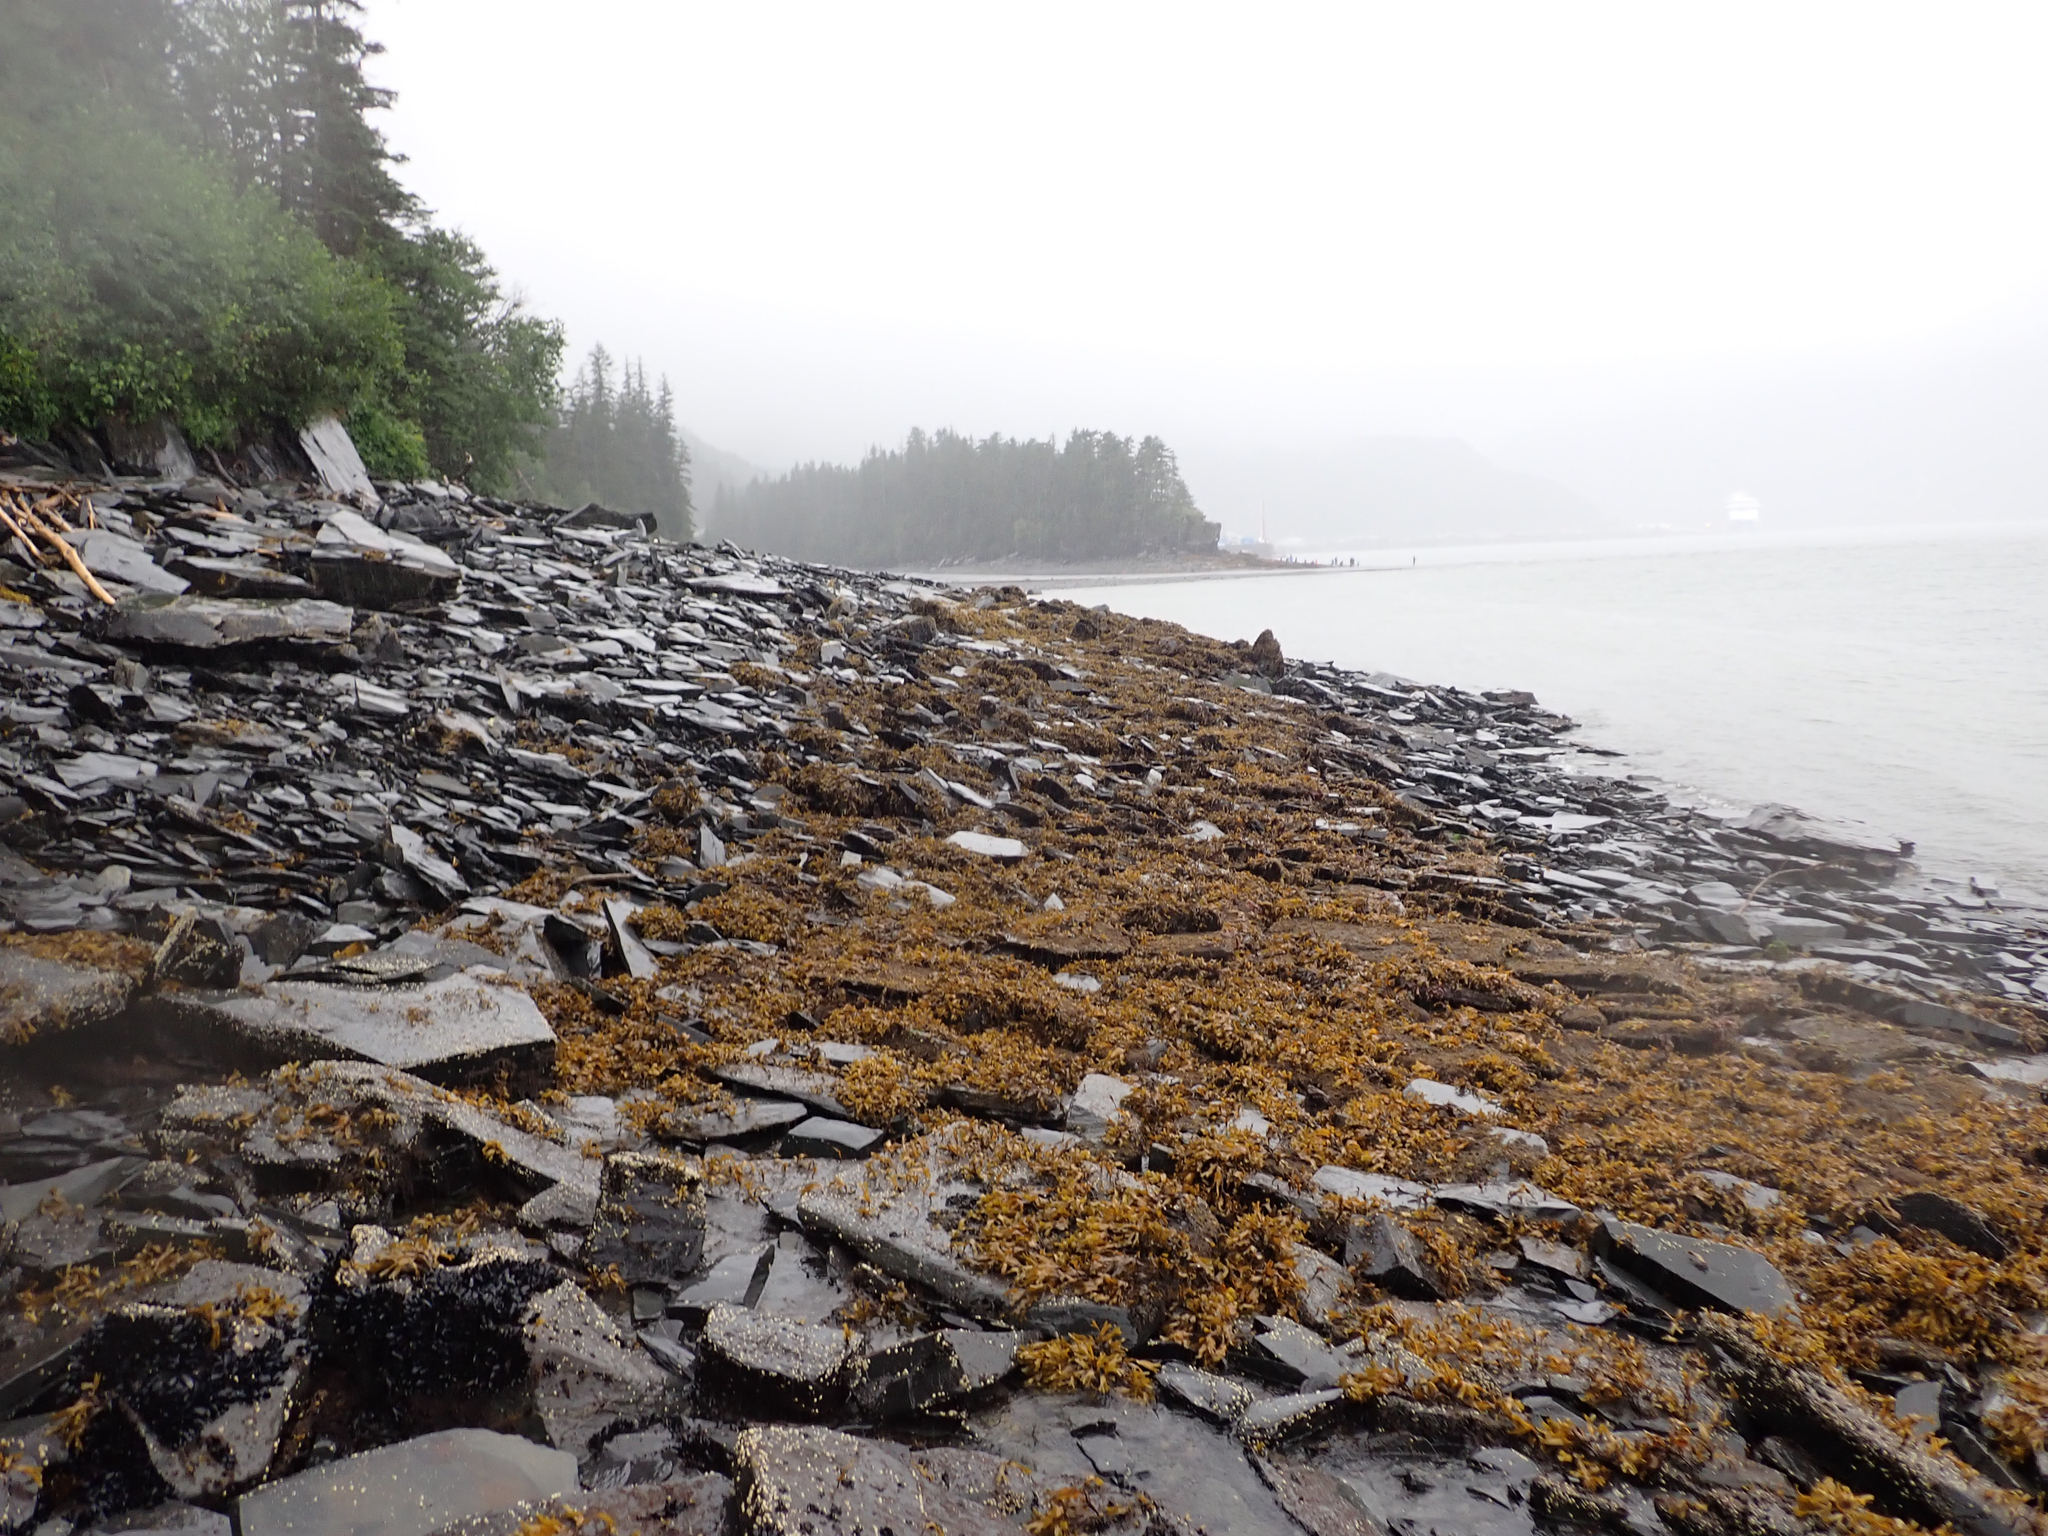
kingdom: Chromista
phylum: Ochrophyta
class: Phaeophyceae
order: Fucales
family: Fucaceae
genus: Fucus
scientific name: Fucus distichus
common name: Rockweed
